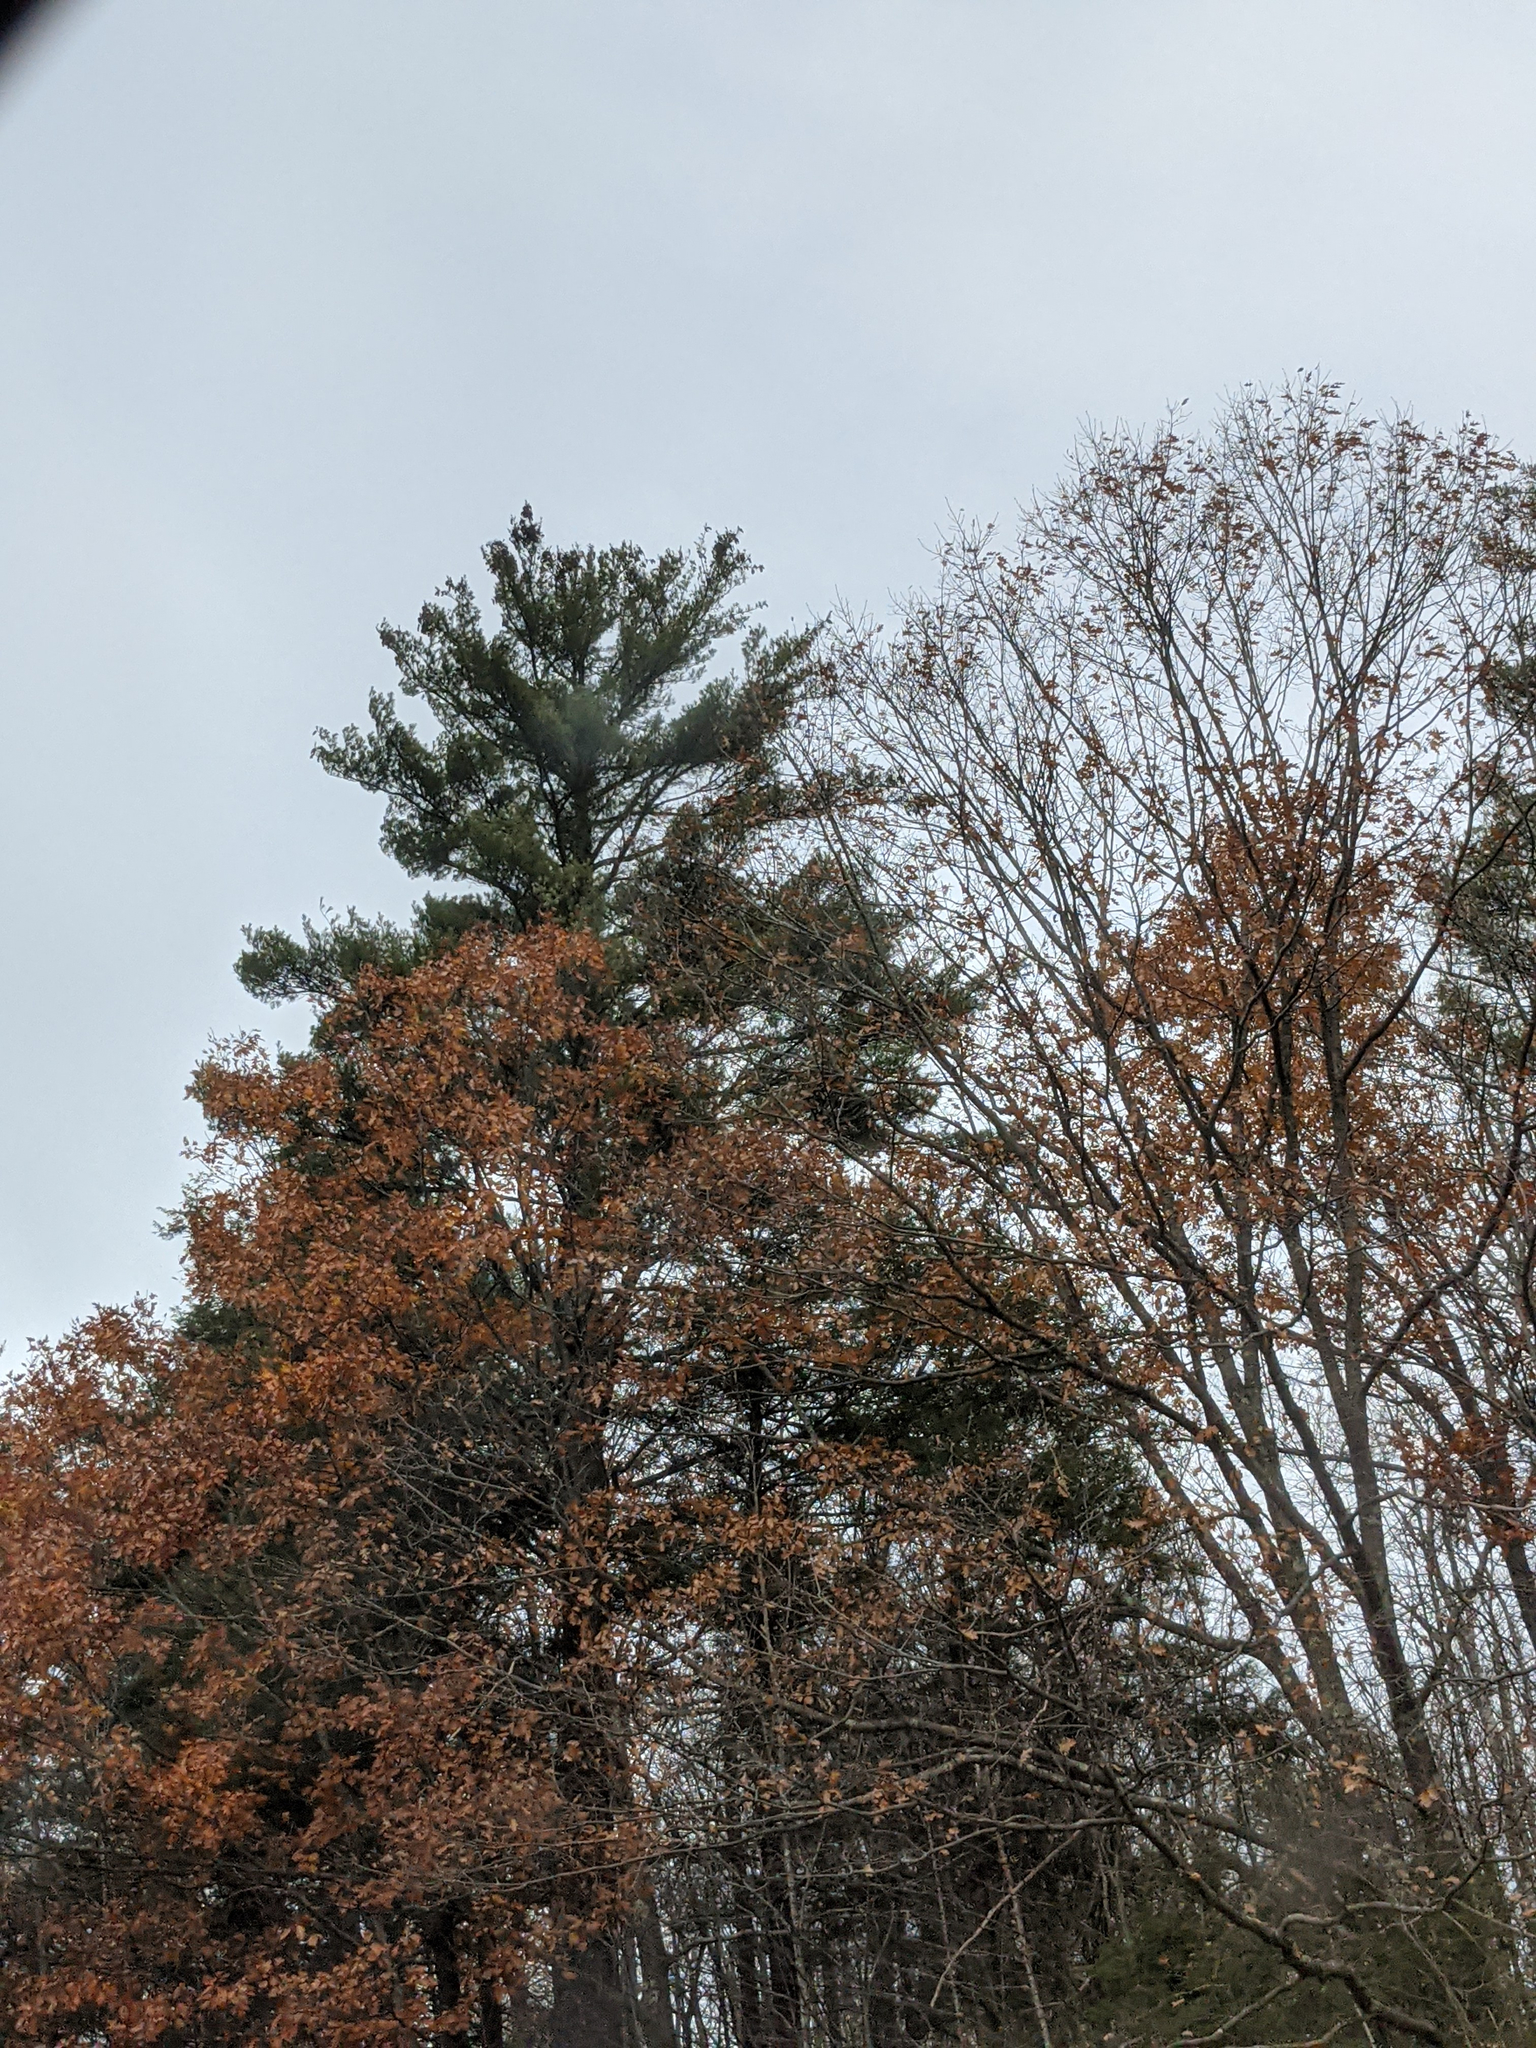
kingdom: Plantae
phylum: Tracheophyta
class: Pinopsida
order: Pinales
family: Pinaceae
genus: Pinus
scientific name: Pinus strobus
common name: Weymouth pine
